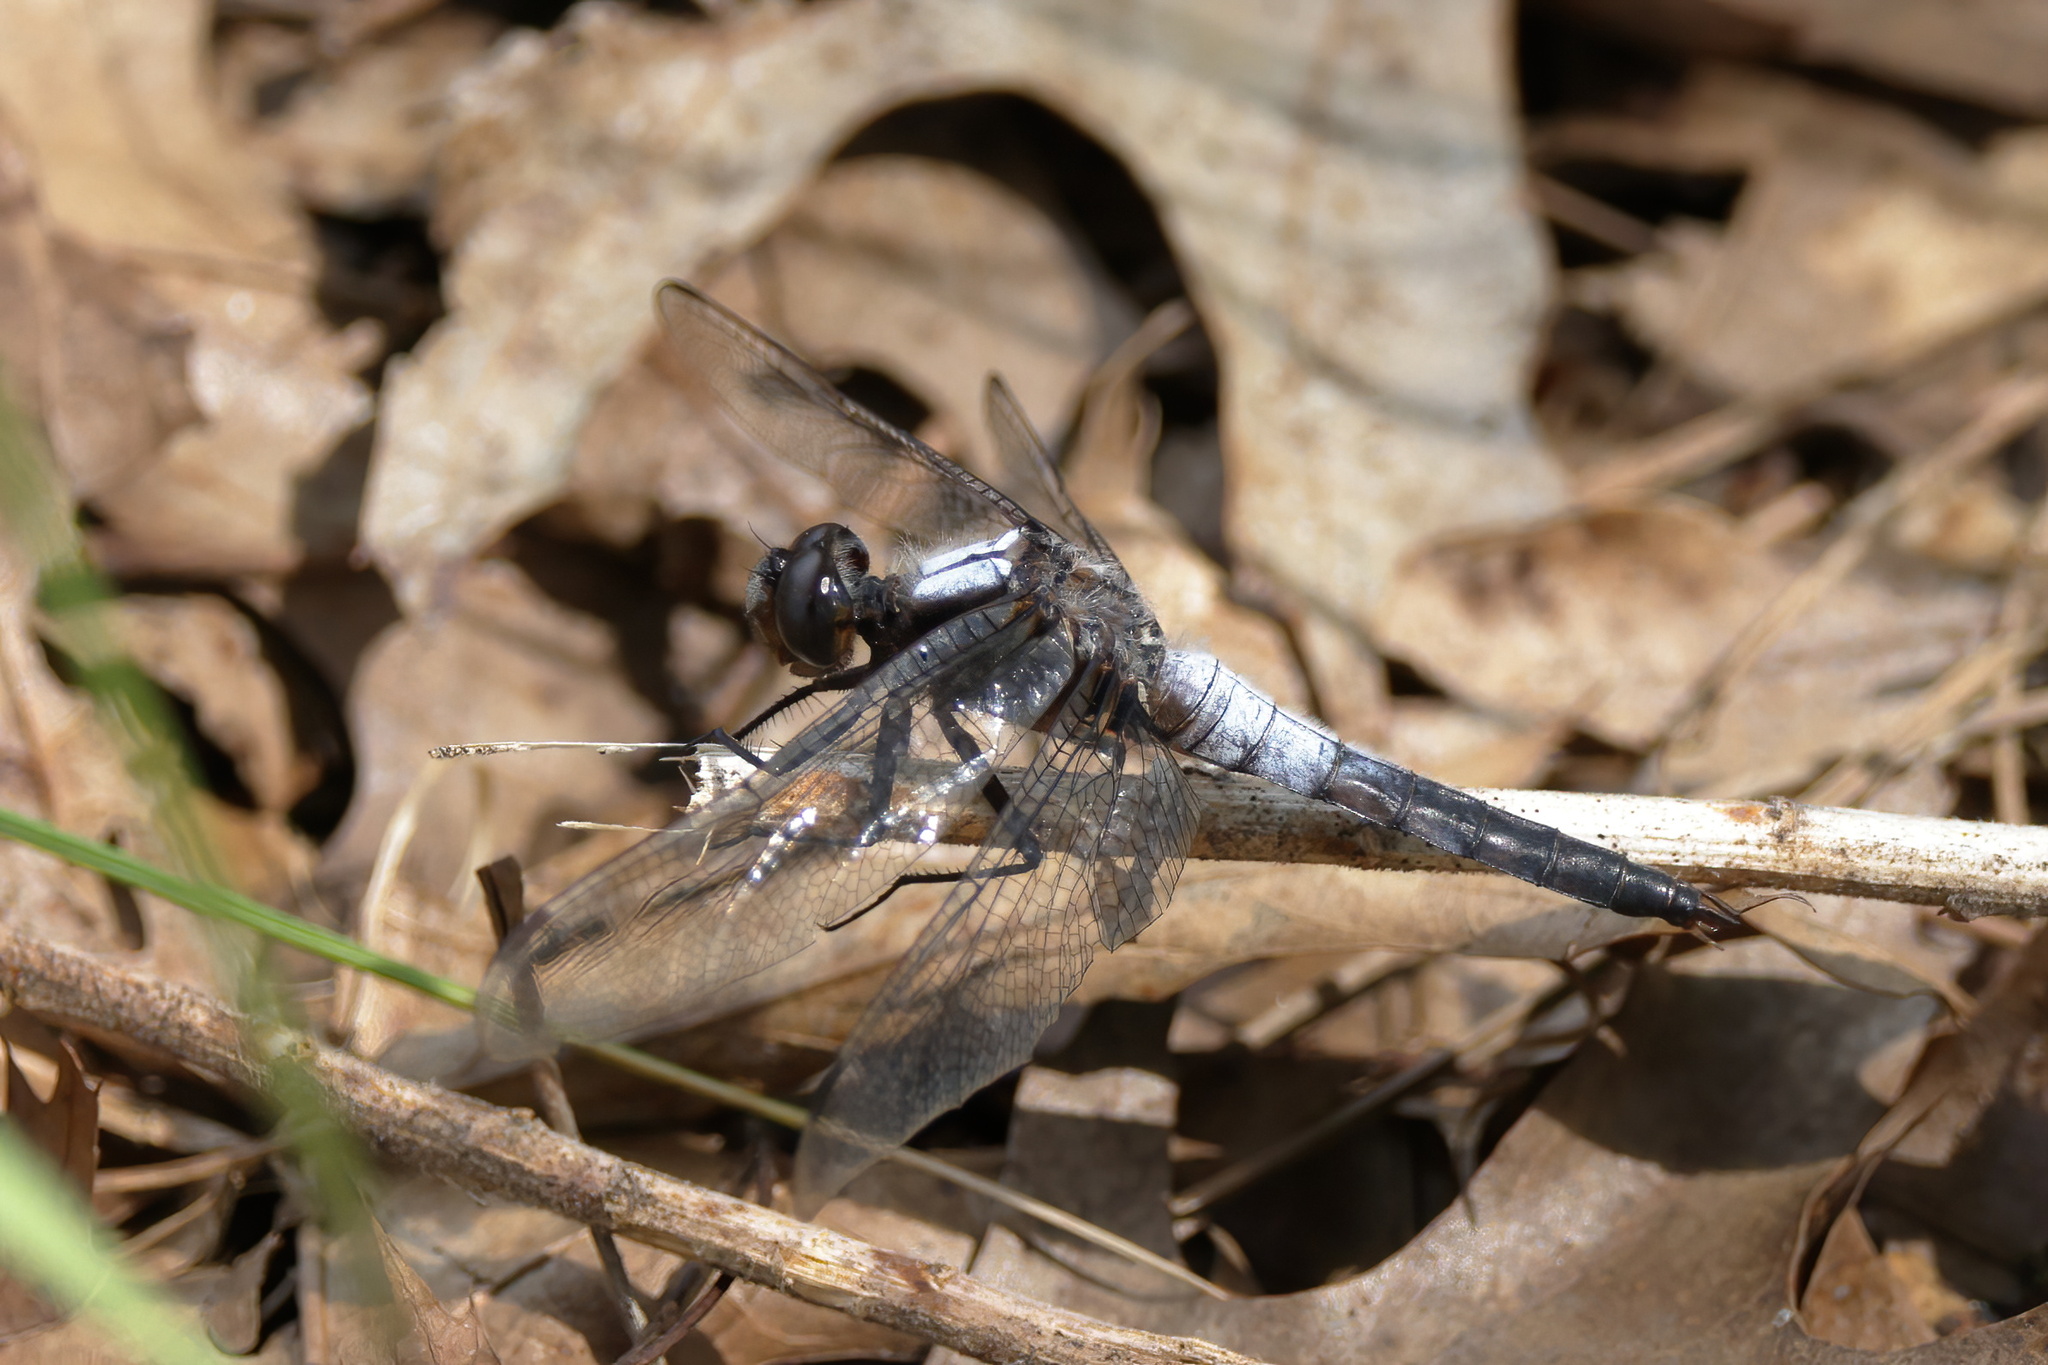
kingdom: Animalia
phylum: Arthropoda
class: Insecta
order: Odonata
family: Libellulidae
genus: Ladona
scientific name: Ladona julia
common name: Chalk-fronted corporal
